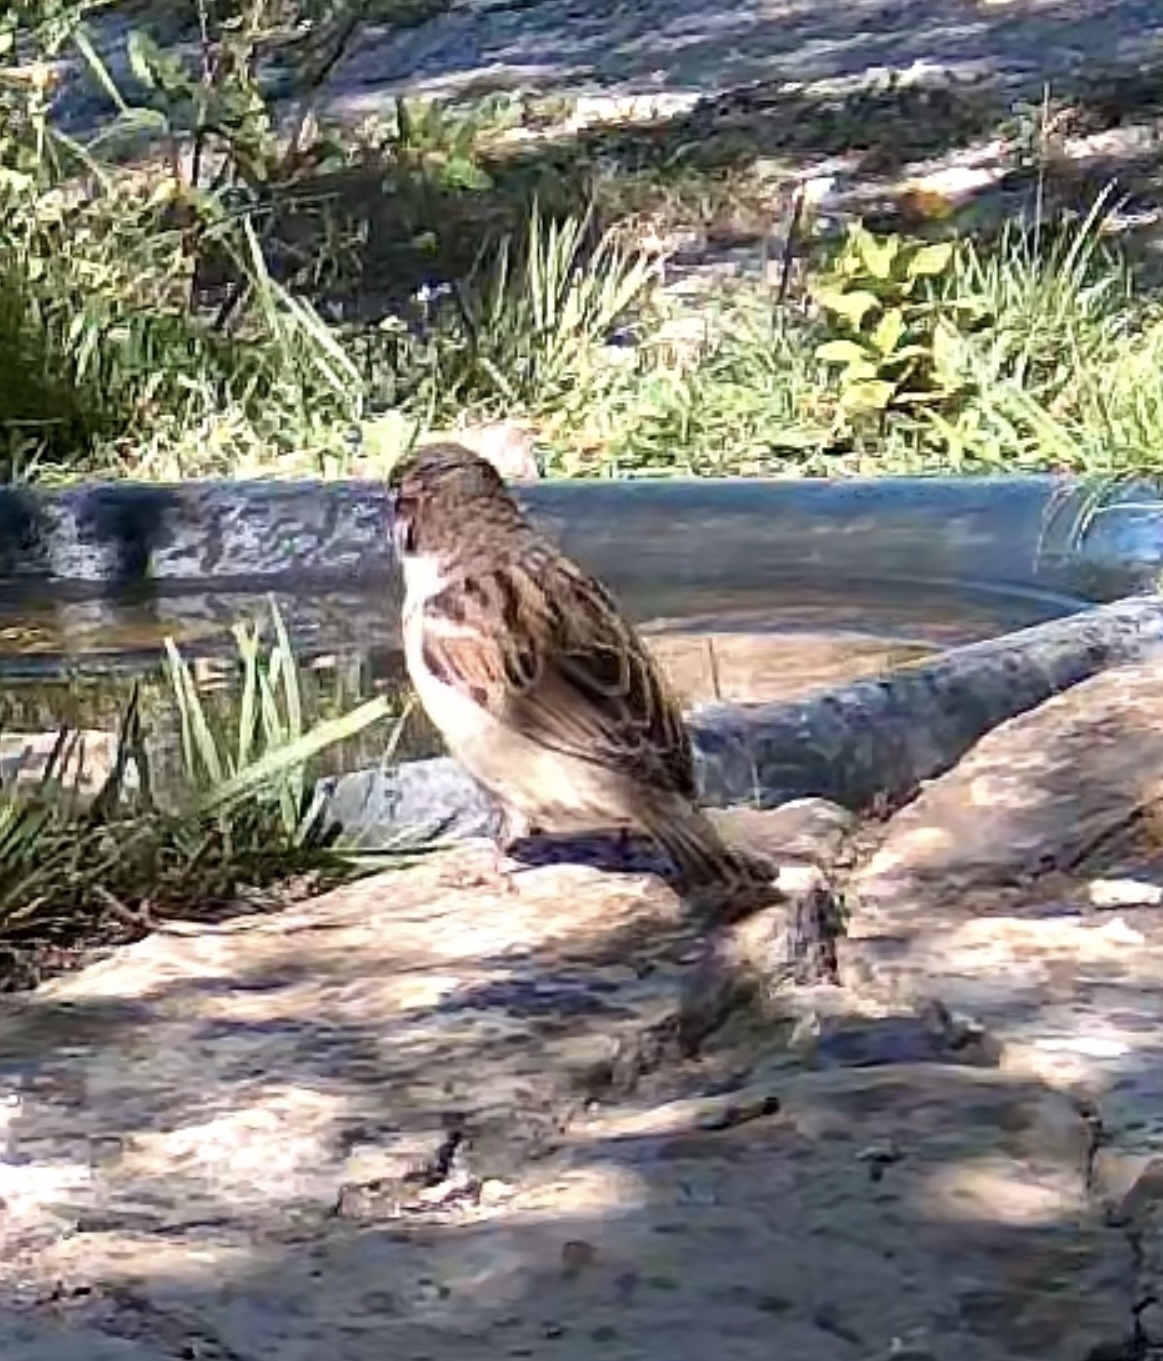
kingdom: Animalia
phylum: Chordata
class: Aves
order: Passeriformes
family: Passeridae
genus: Passer
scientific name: Passer domesticus
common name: House sparrow
